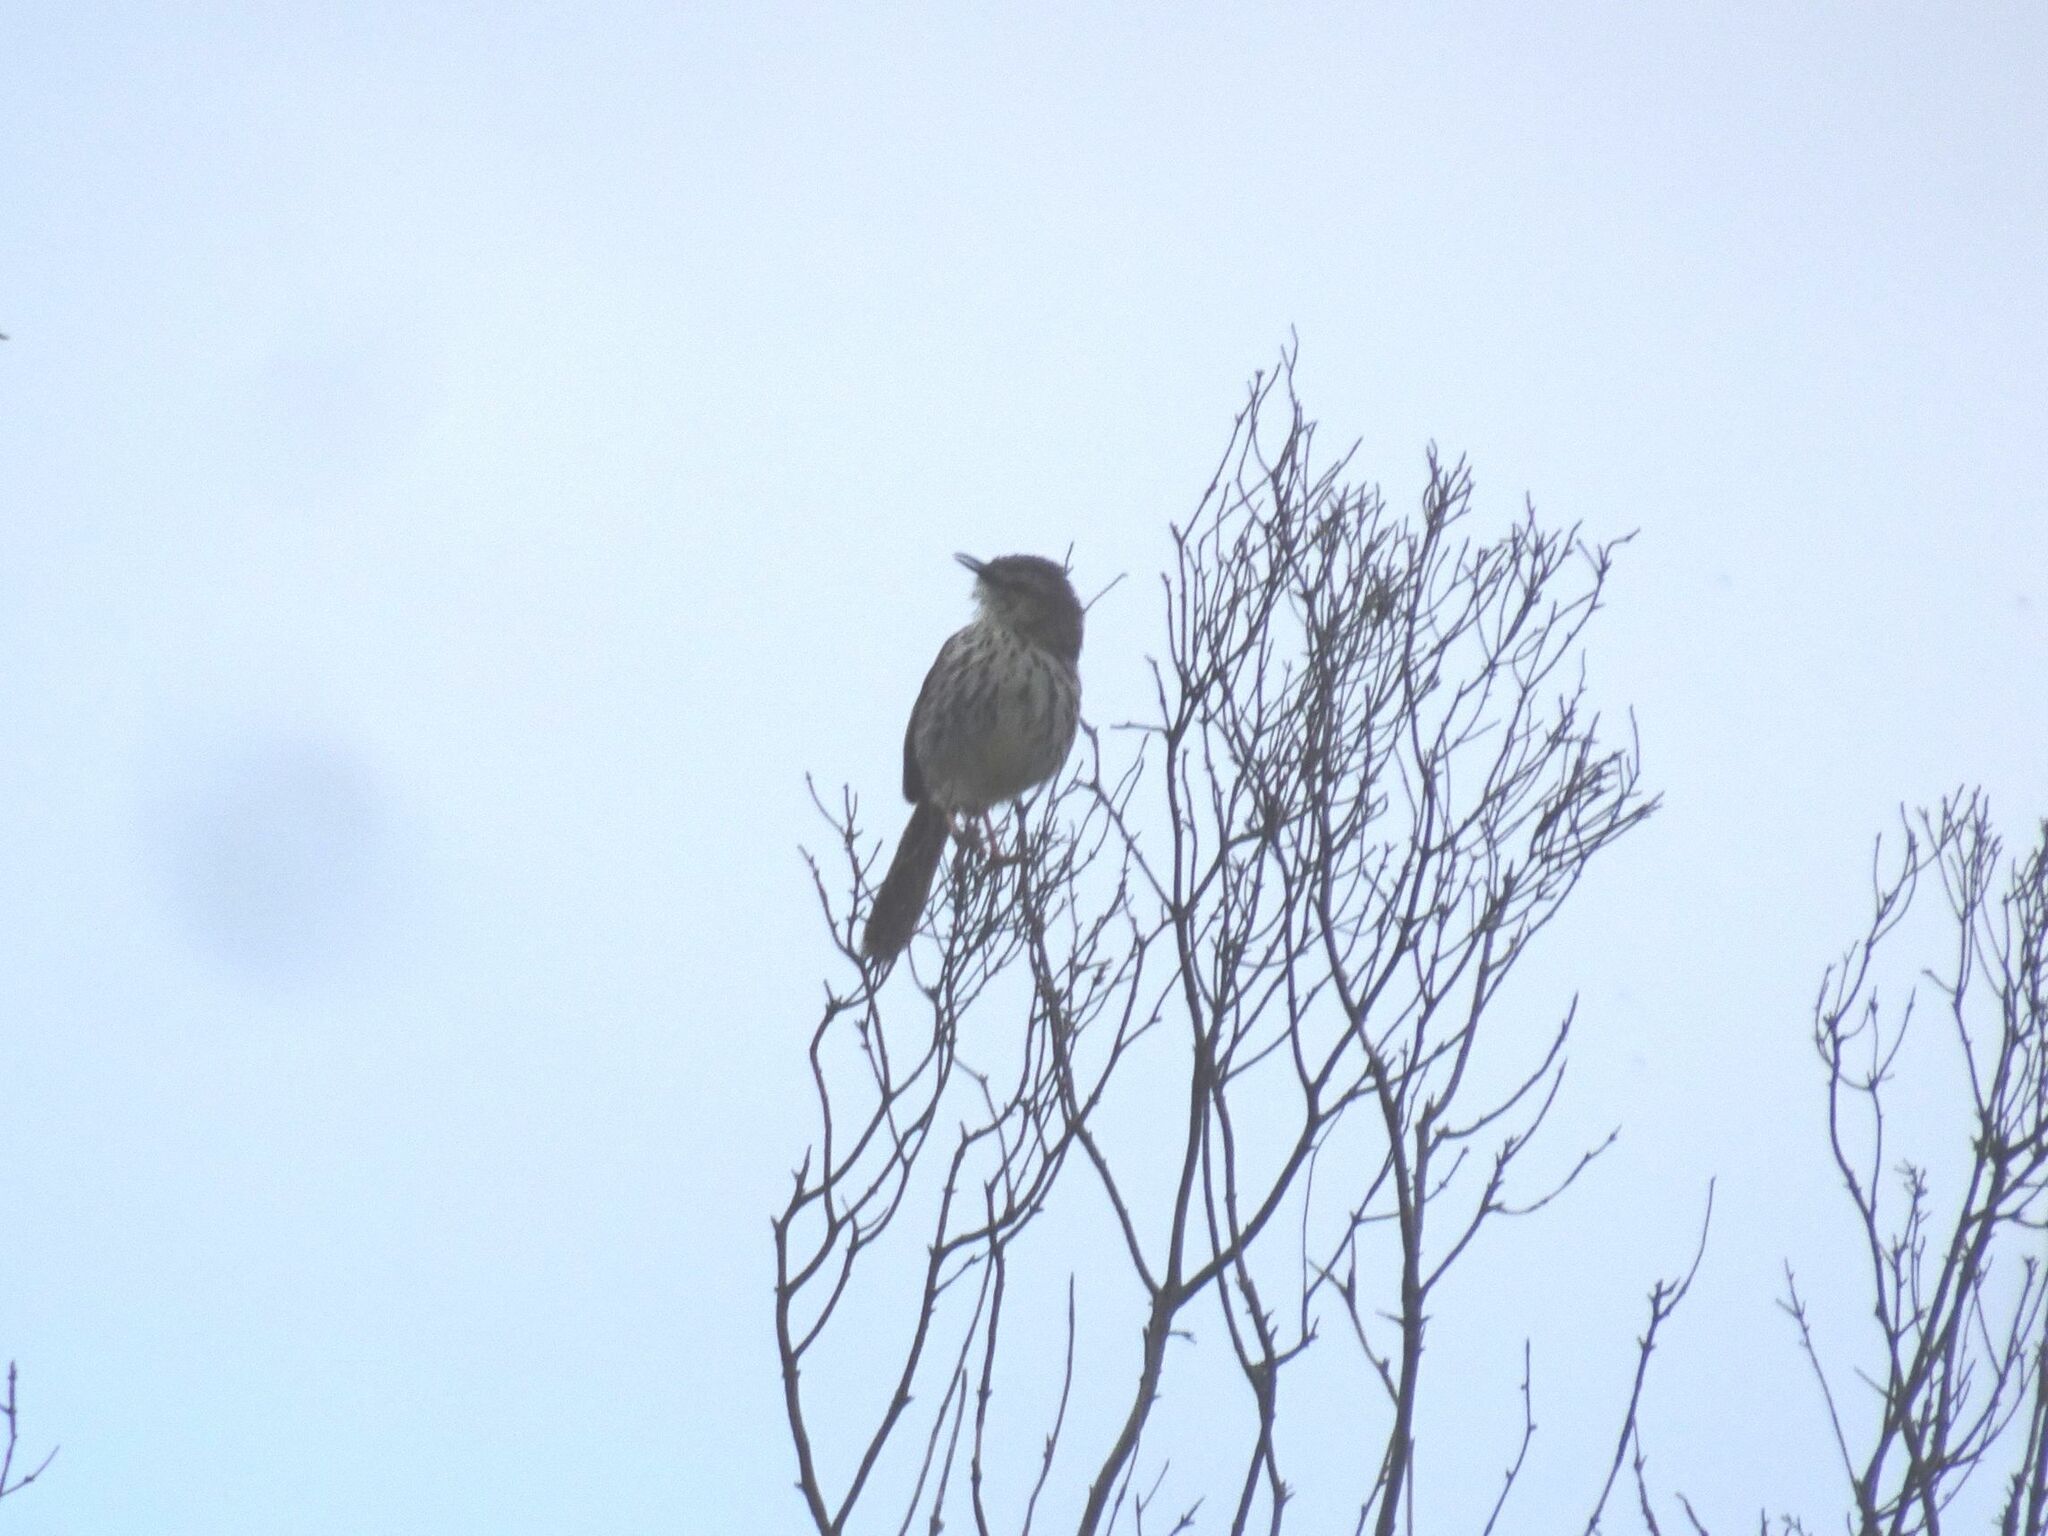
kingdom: Animalia
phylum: Chordata
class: Aves
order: Passeriformes
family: Cisticolidae
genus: Prinia
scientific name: Prinia maculosa
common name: Karoo prinia
